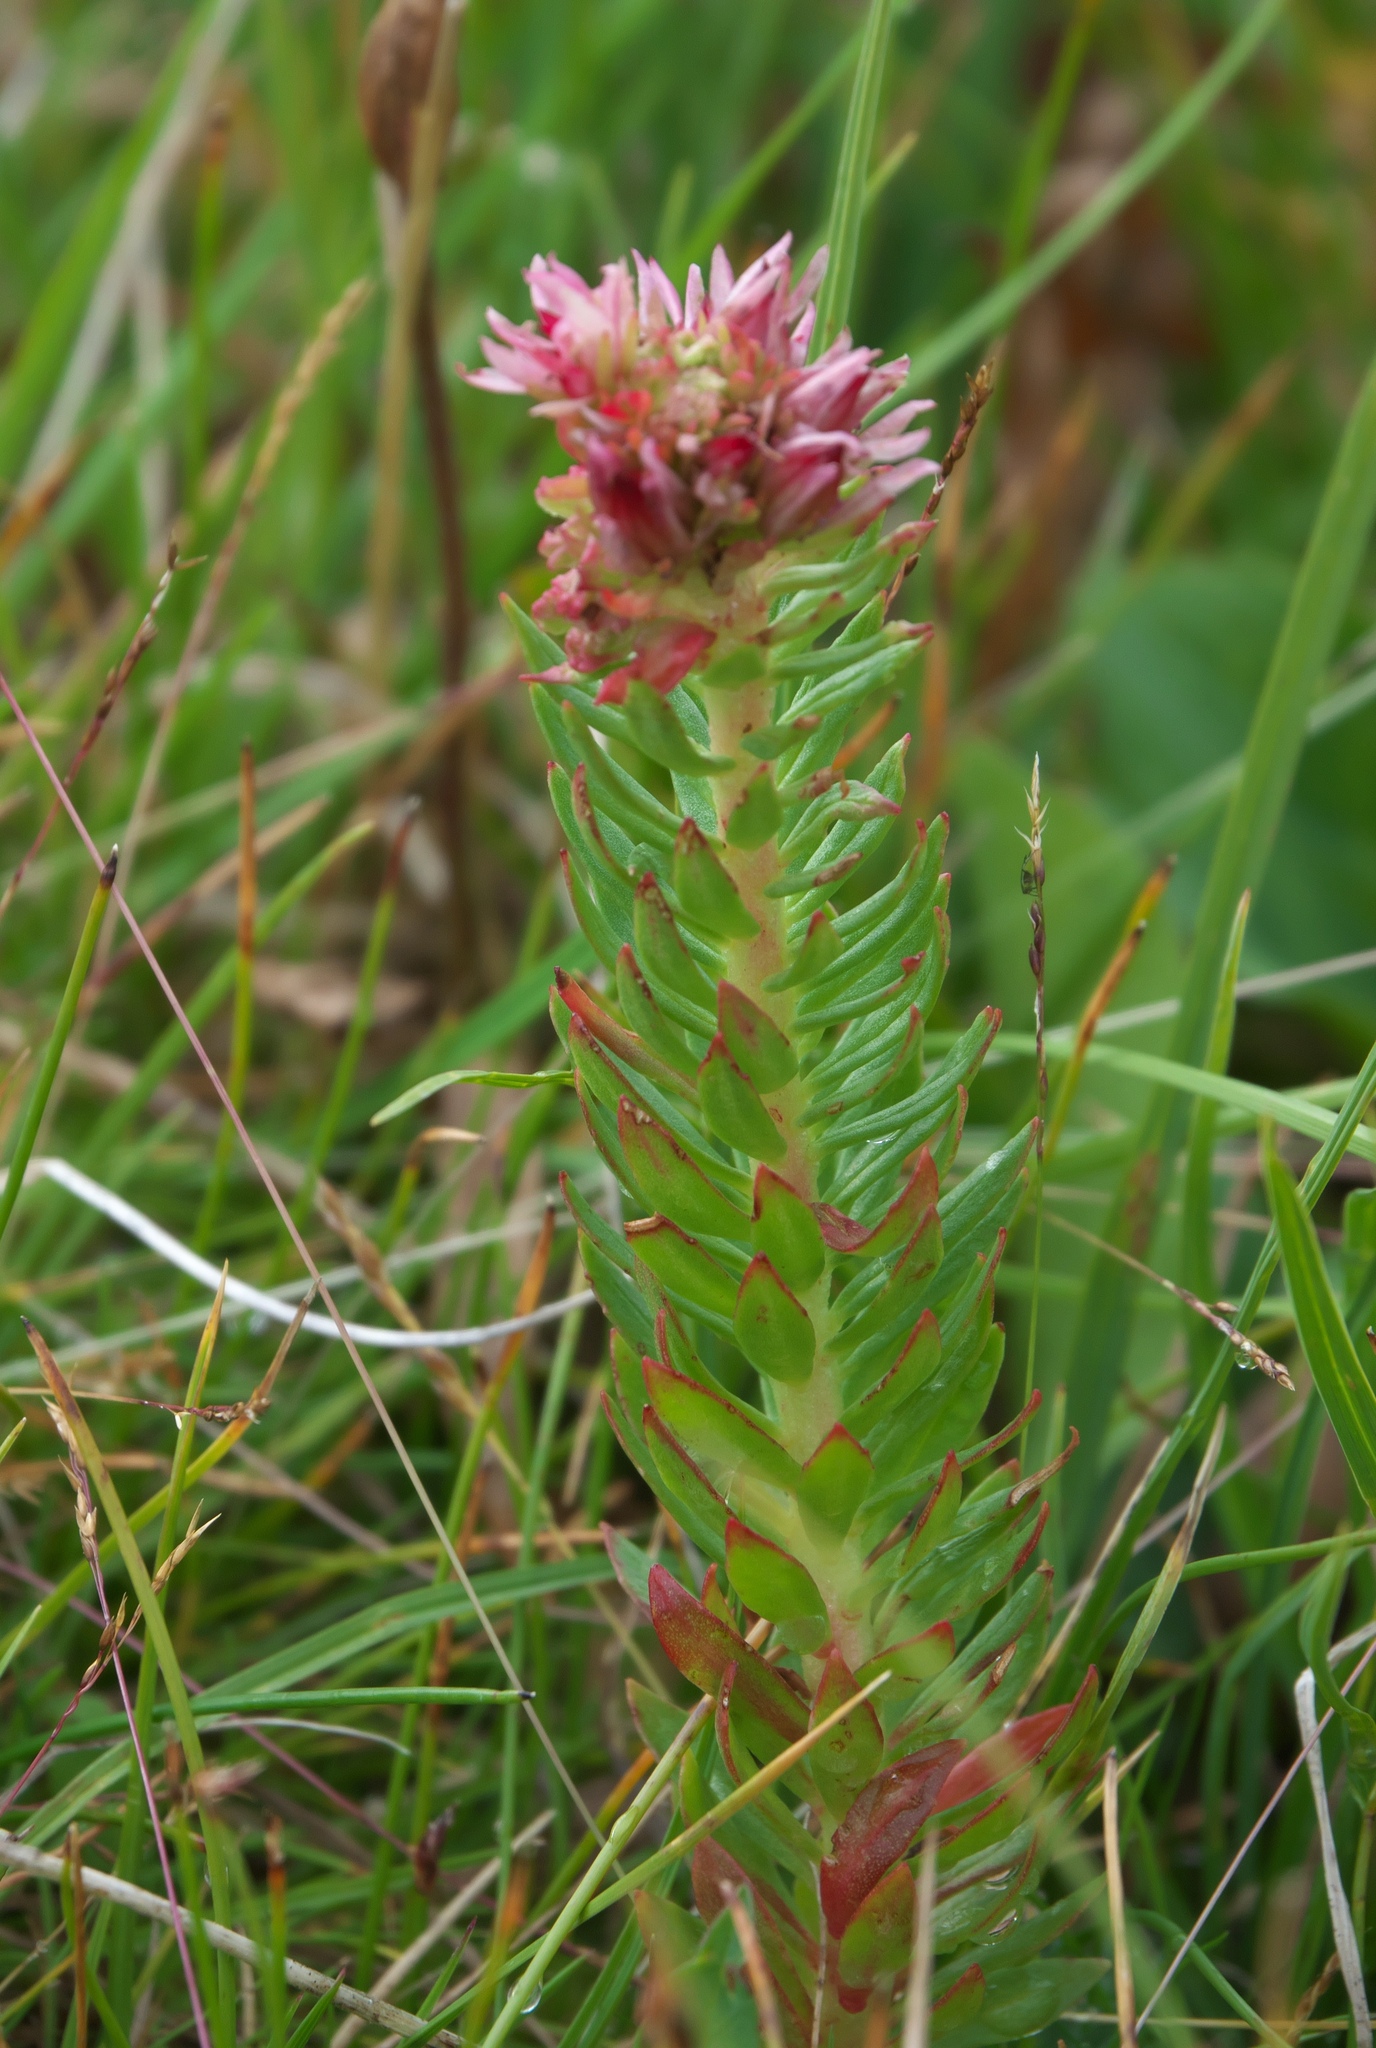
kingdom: Plantae
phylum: Tracheophyta
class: Magnoliopsida
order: Saxifragales
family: Crassulaceae
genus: Rhodiola
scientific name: Rhodiola rhodantha
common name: Red orpine
